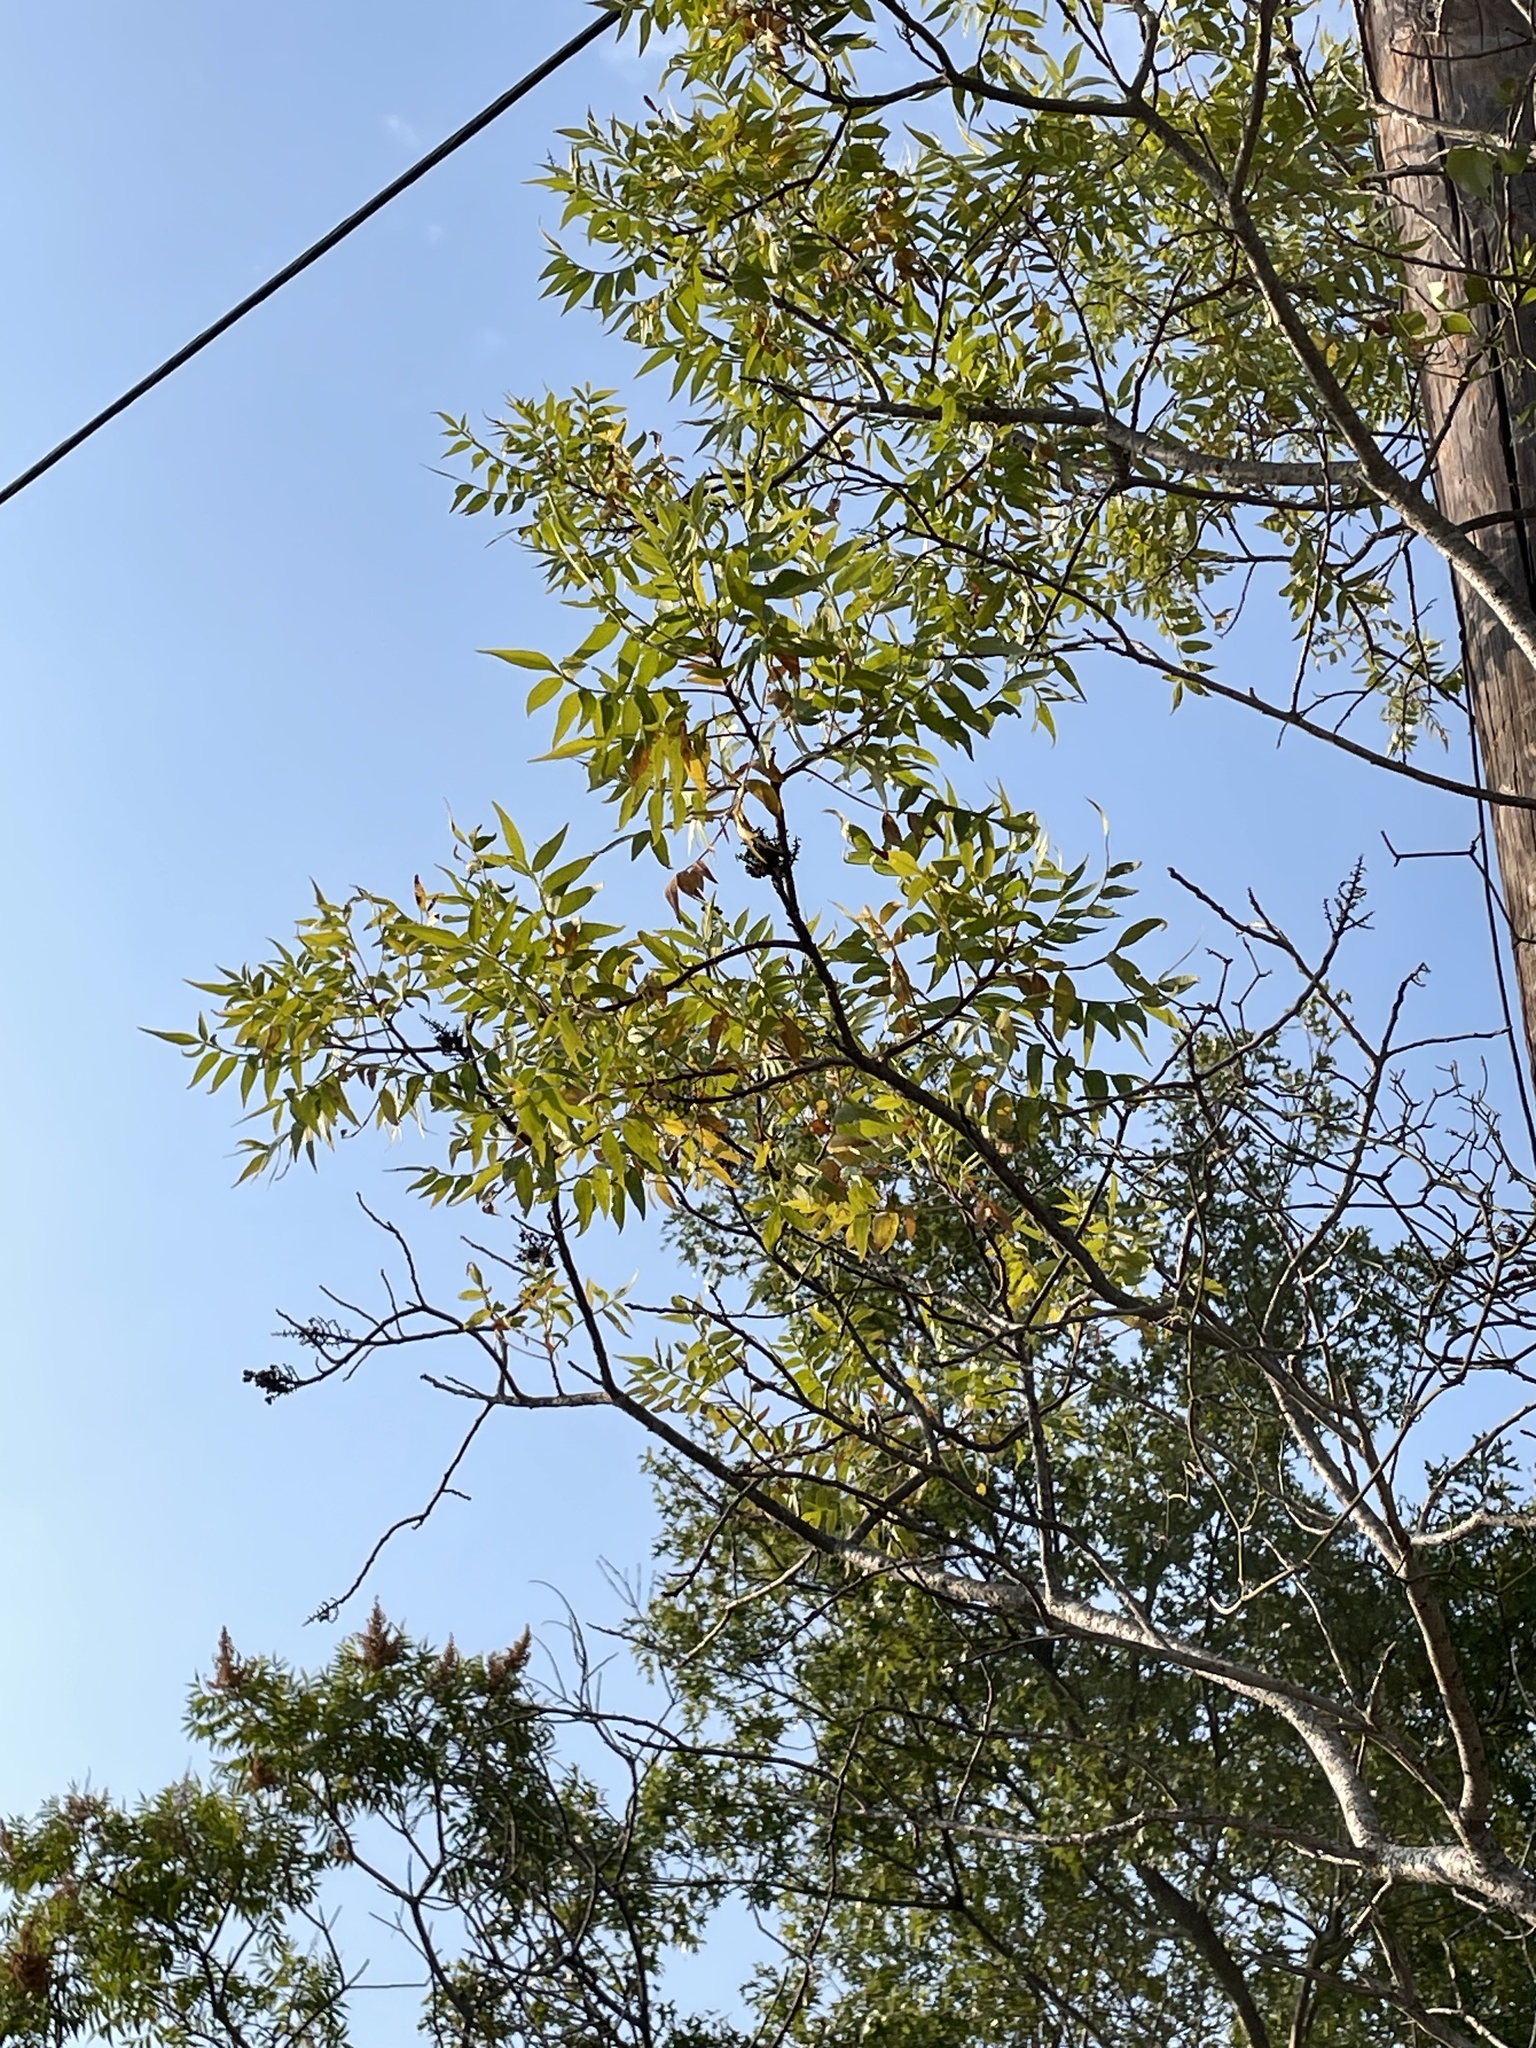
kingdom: Plantae
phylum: Tracheophyta
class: Magnoliopsida
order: Sapindales
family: Anacardiaceae
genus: Rhus
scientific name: Rhus lanceolata
